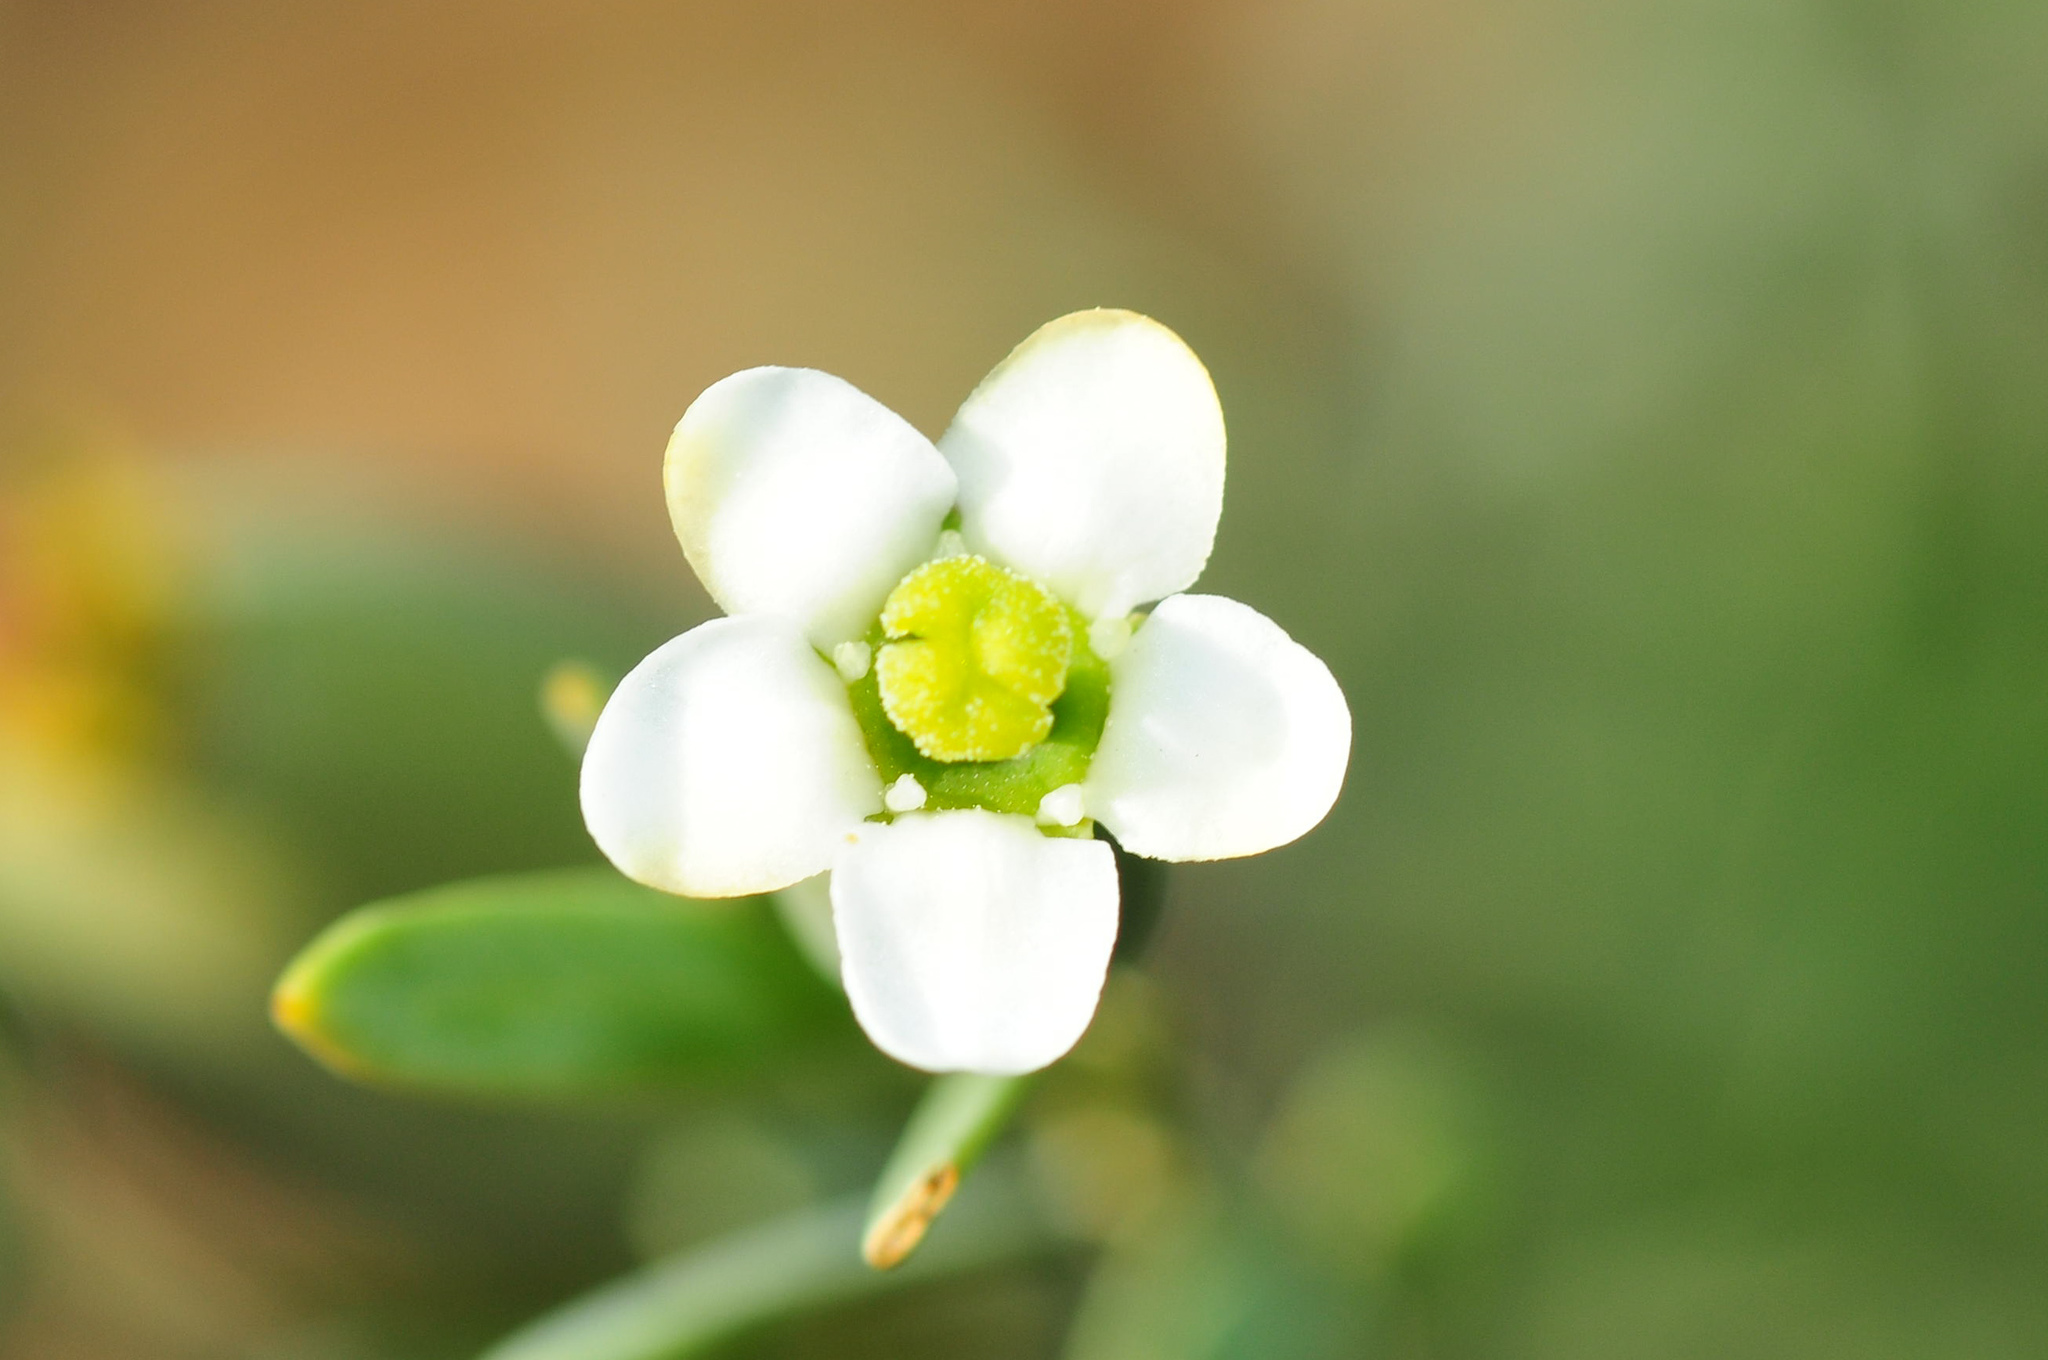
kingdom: Plantae
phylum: Tracheophyta
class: Magnoliopsida
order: Solanales
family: Montiniaceae
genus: Montinia
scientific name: Montinia caryophyllacea
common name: Wild clove-bush
